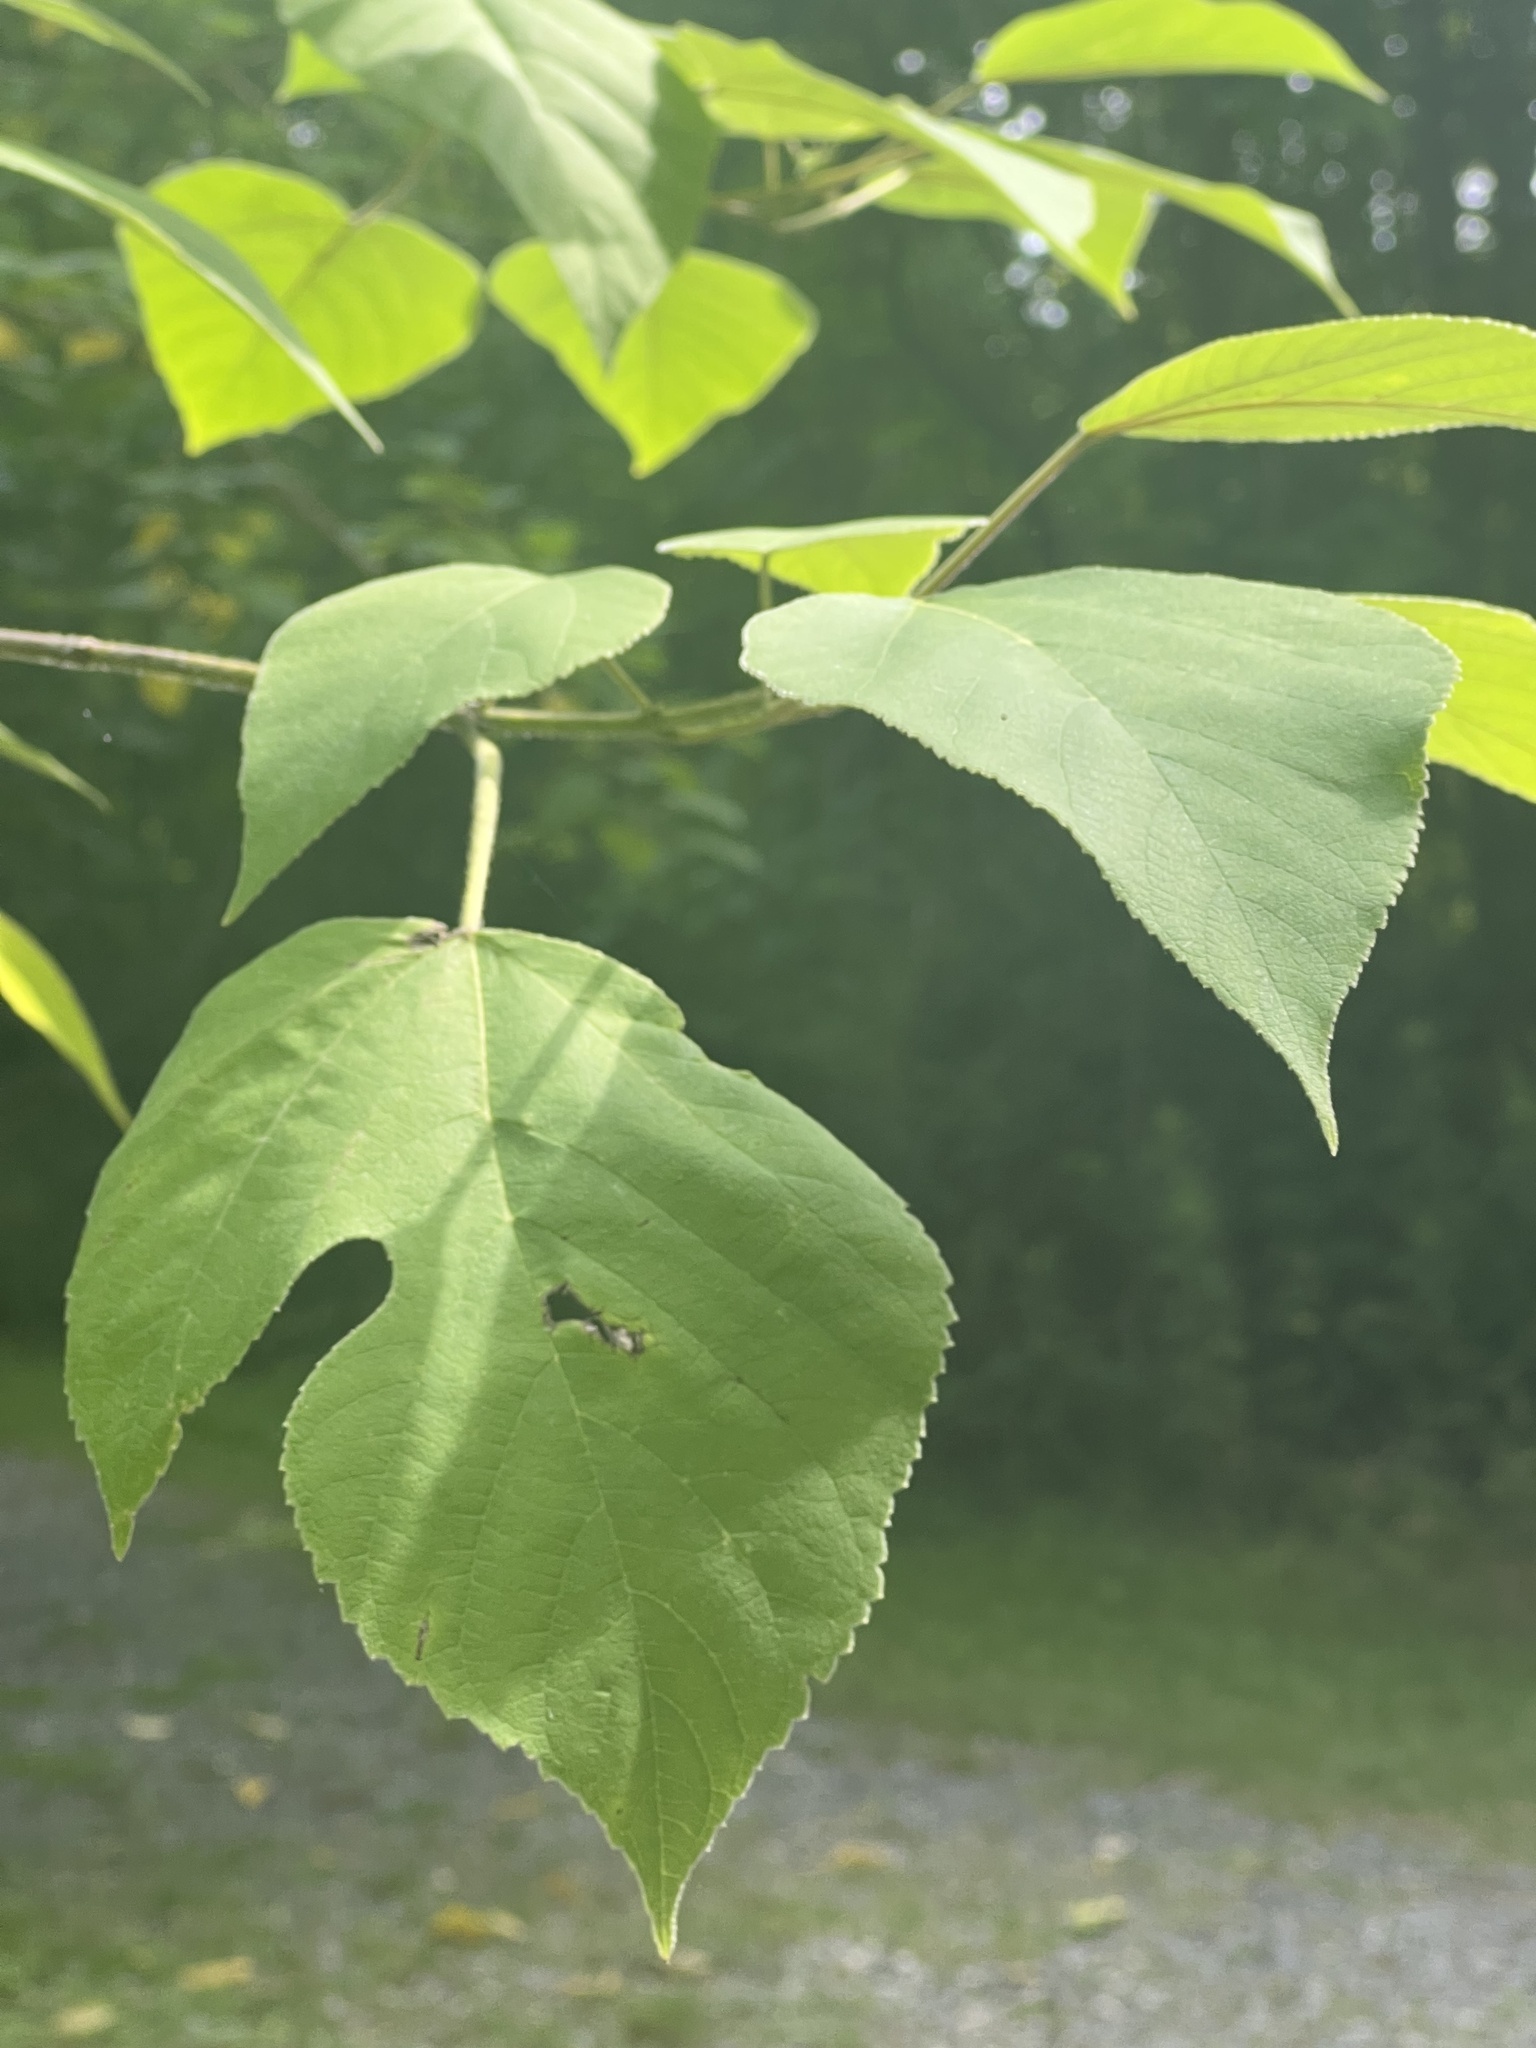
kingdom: Plantae
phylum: Tracheophyta
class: Magnoliopsida
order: Rosales
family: Moraceae
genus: Broussonetia
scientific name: Broussonetia papyrifera
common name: Paper mulberry
